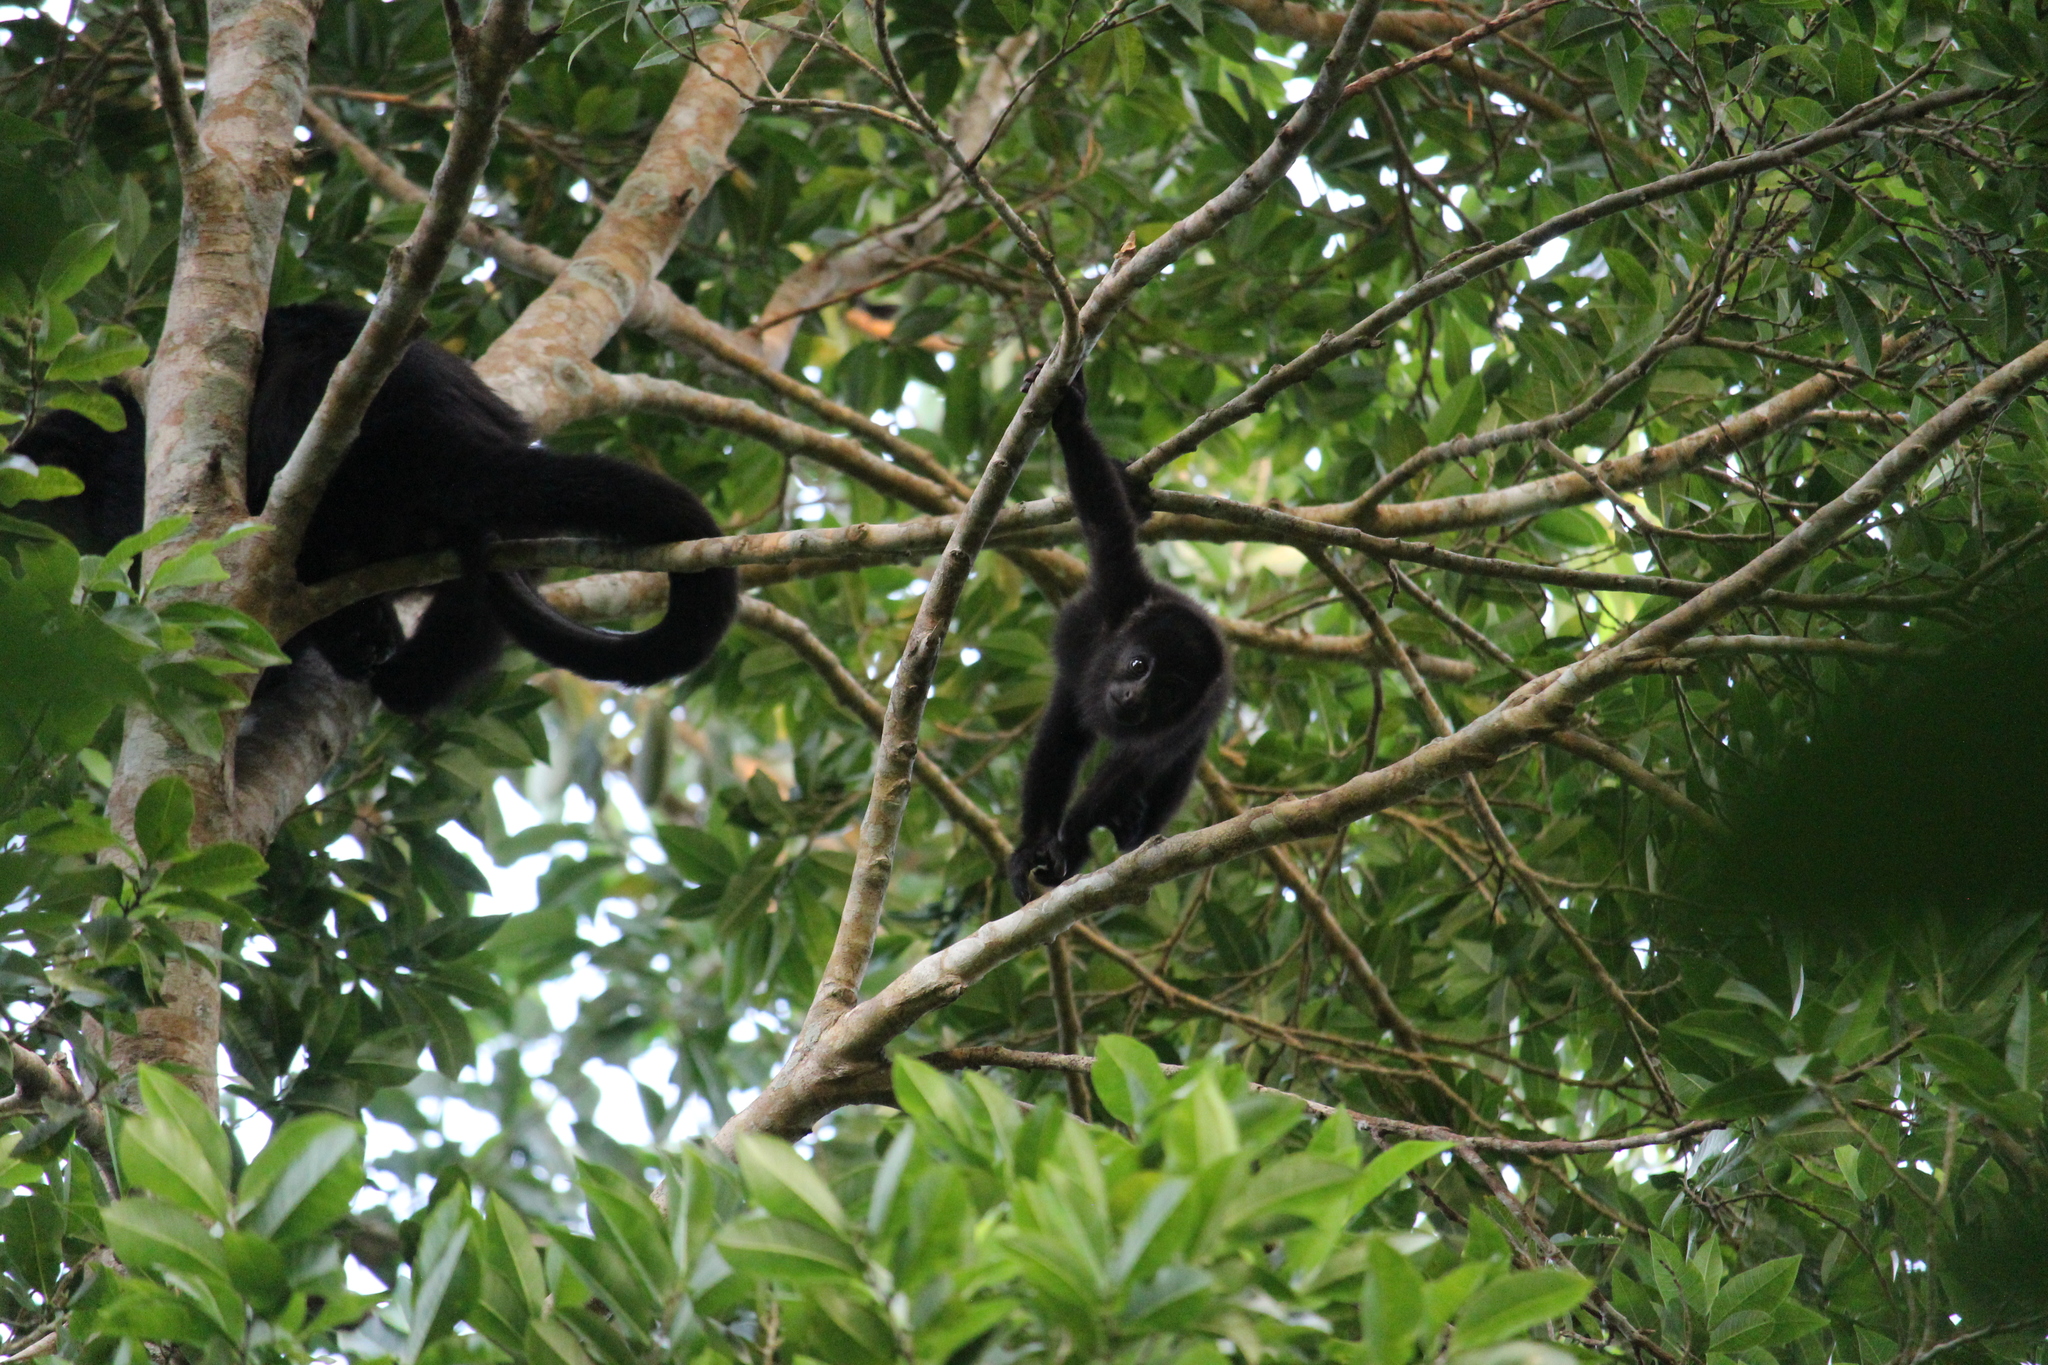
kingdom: Animalia
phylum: Chordata
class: Mammalia
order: Primates
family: Atelidae
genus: Alouatta
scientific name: Alouatta pigra
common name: Guatemalan black howler
